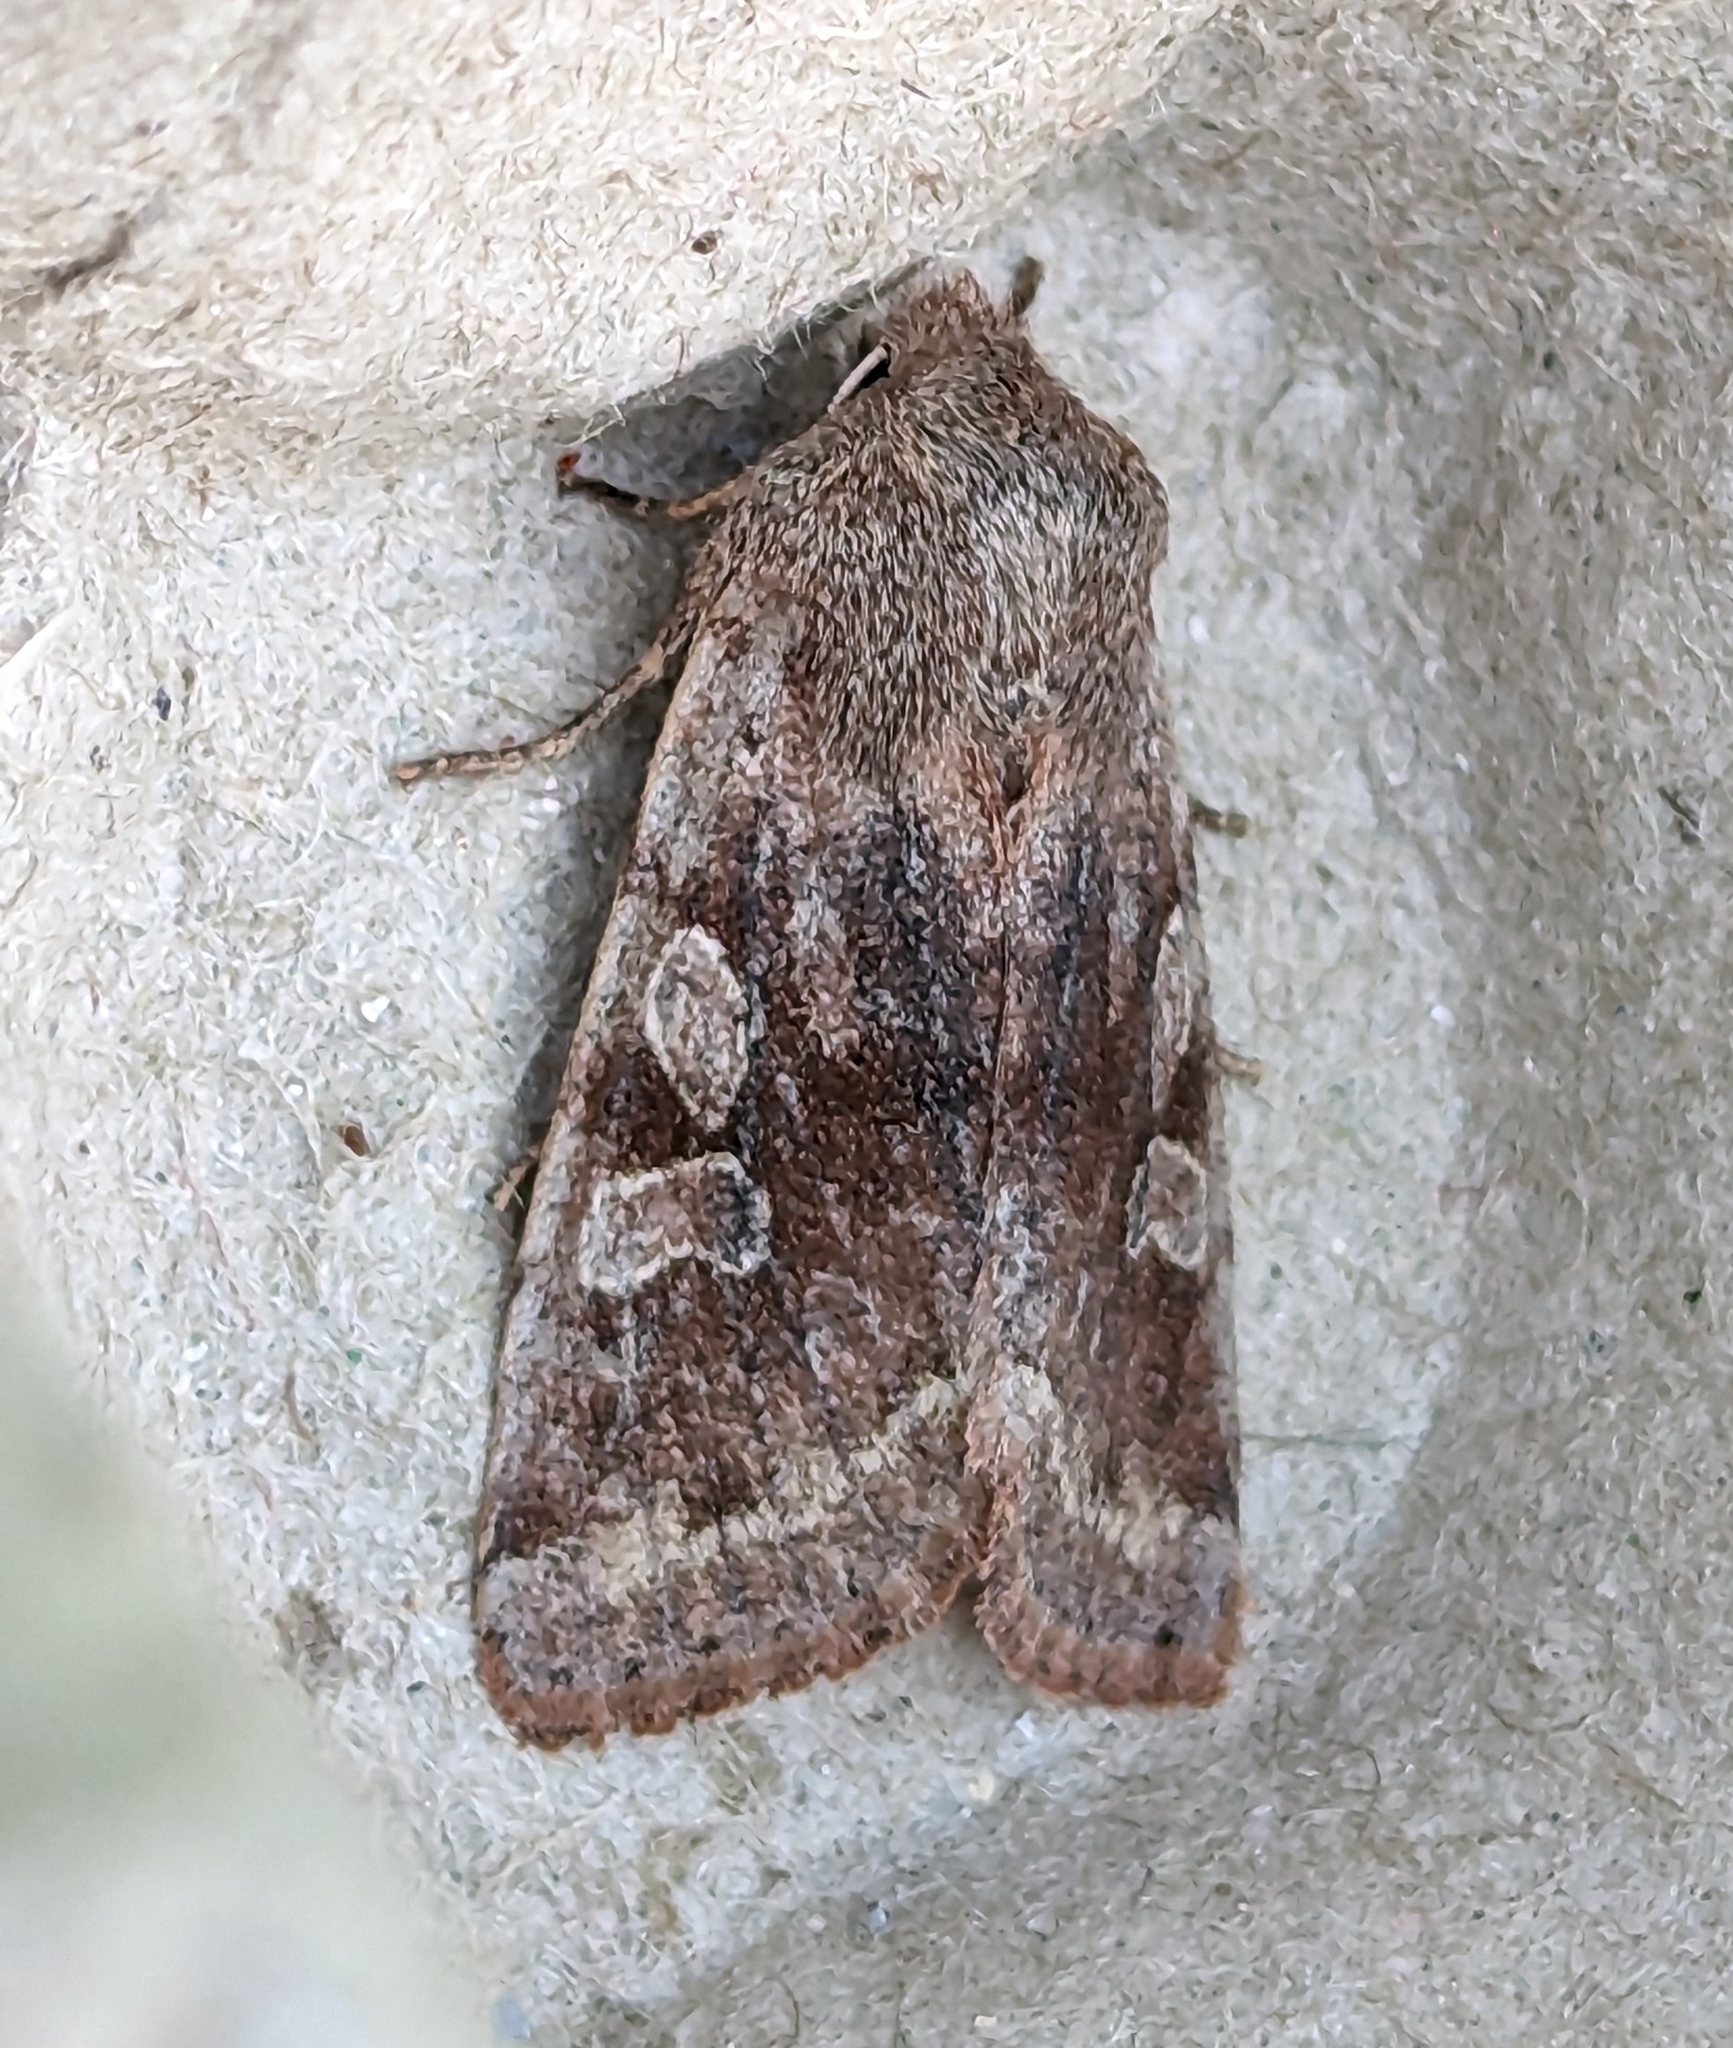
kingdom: Animalia
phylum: Arthropoda
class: Insecta
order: Lepidoptera
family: Noctuidae
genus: Orthosia
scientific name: Orthosia hibisci
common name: Green fruitworm
